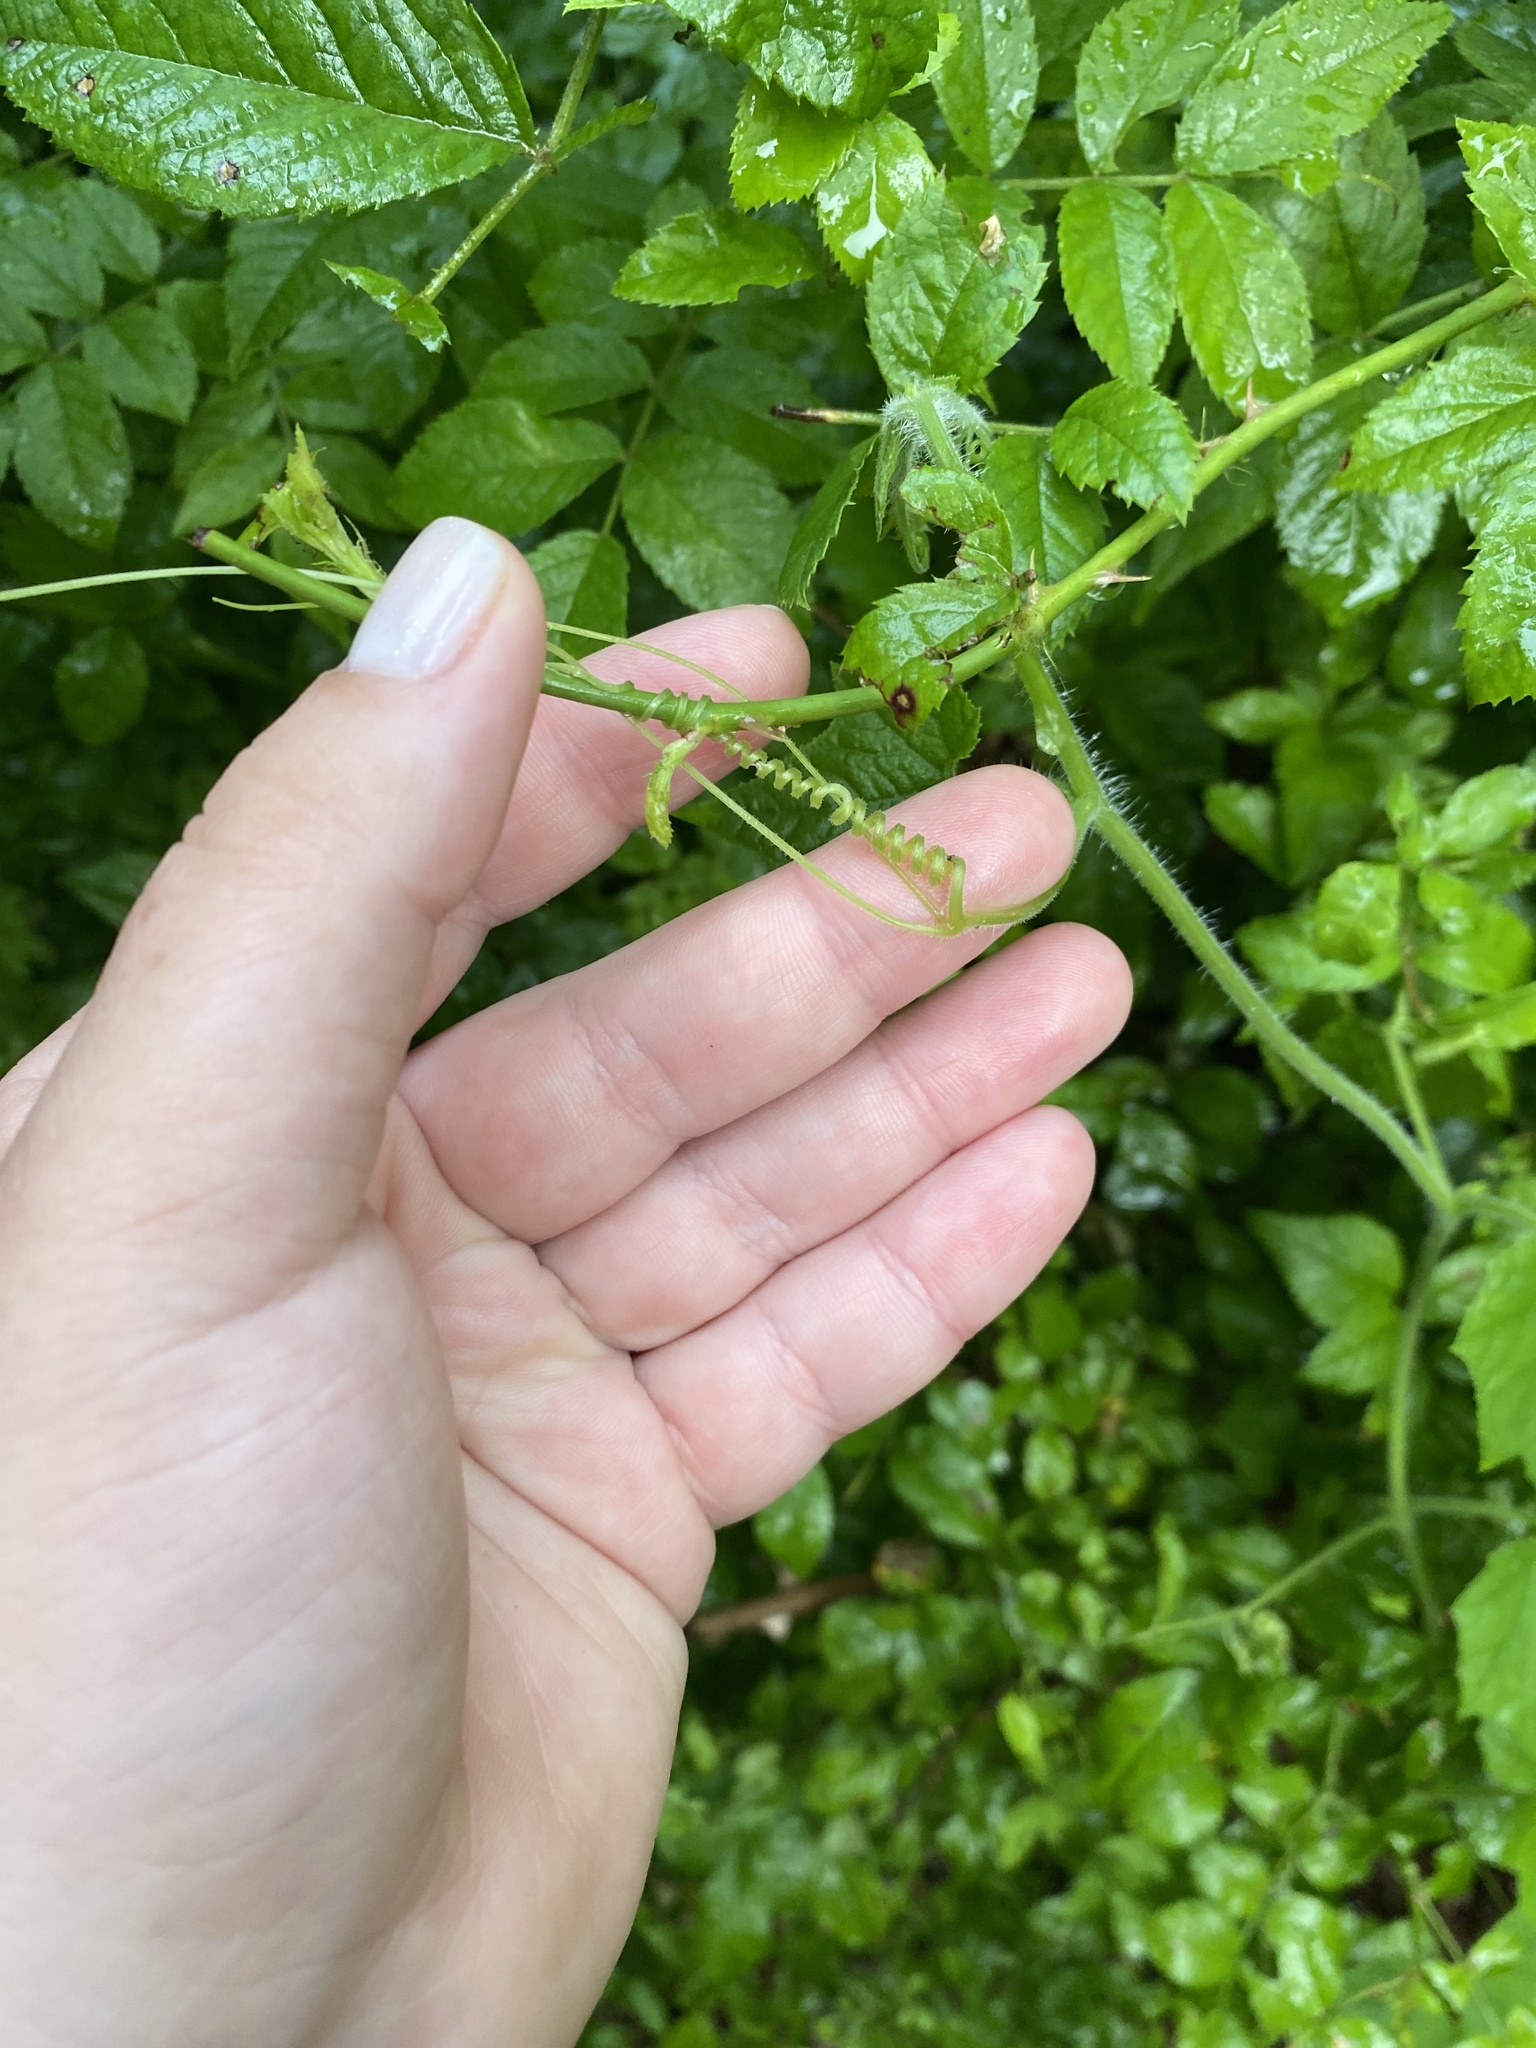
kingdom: Plantae
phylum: Tracheophyta
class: Magnoliopsida
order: Cucurbitales
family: Cucurbitaceae
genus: Sicyos
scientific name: Sicyos angulatus
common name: Angled burr cucumber
